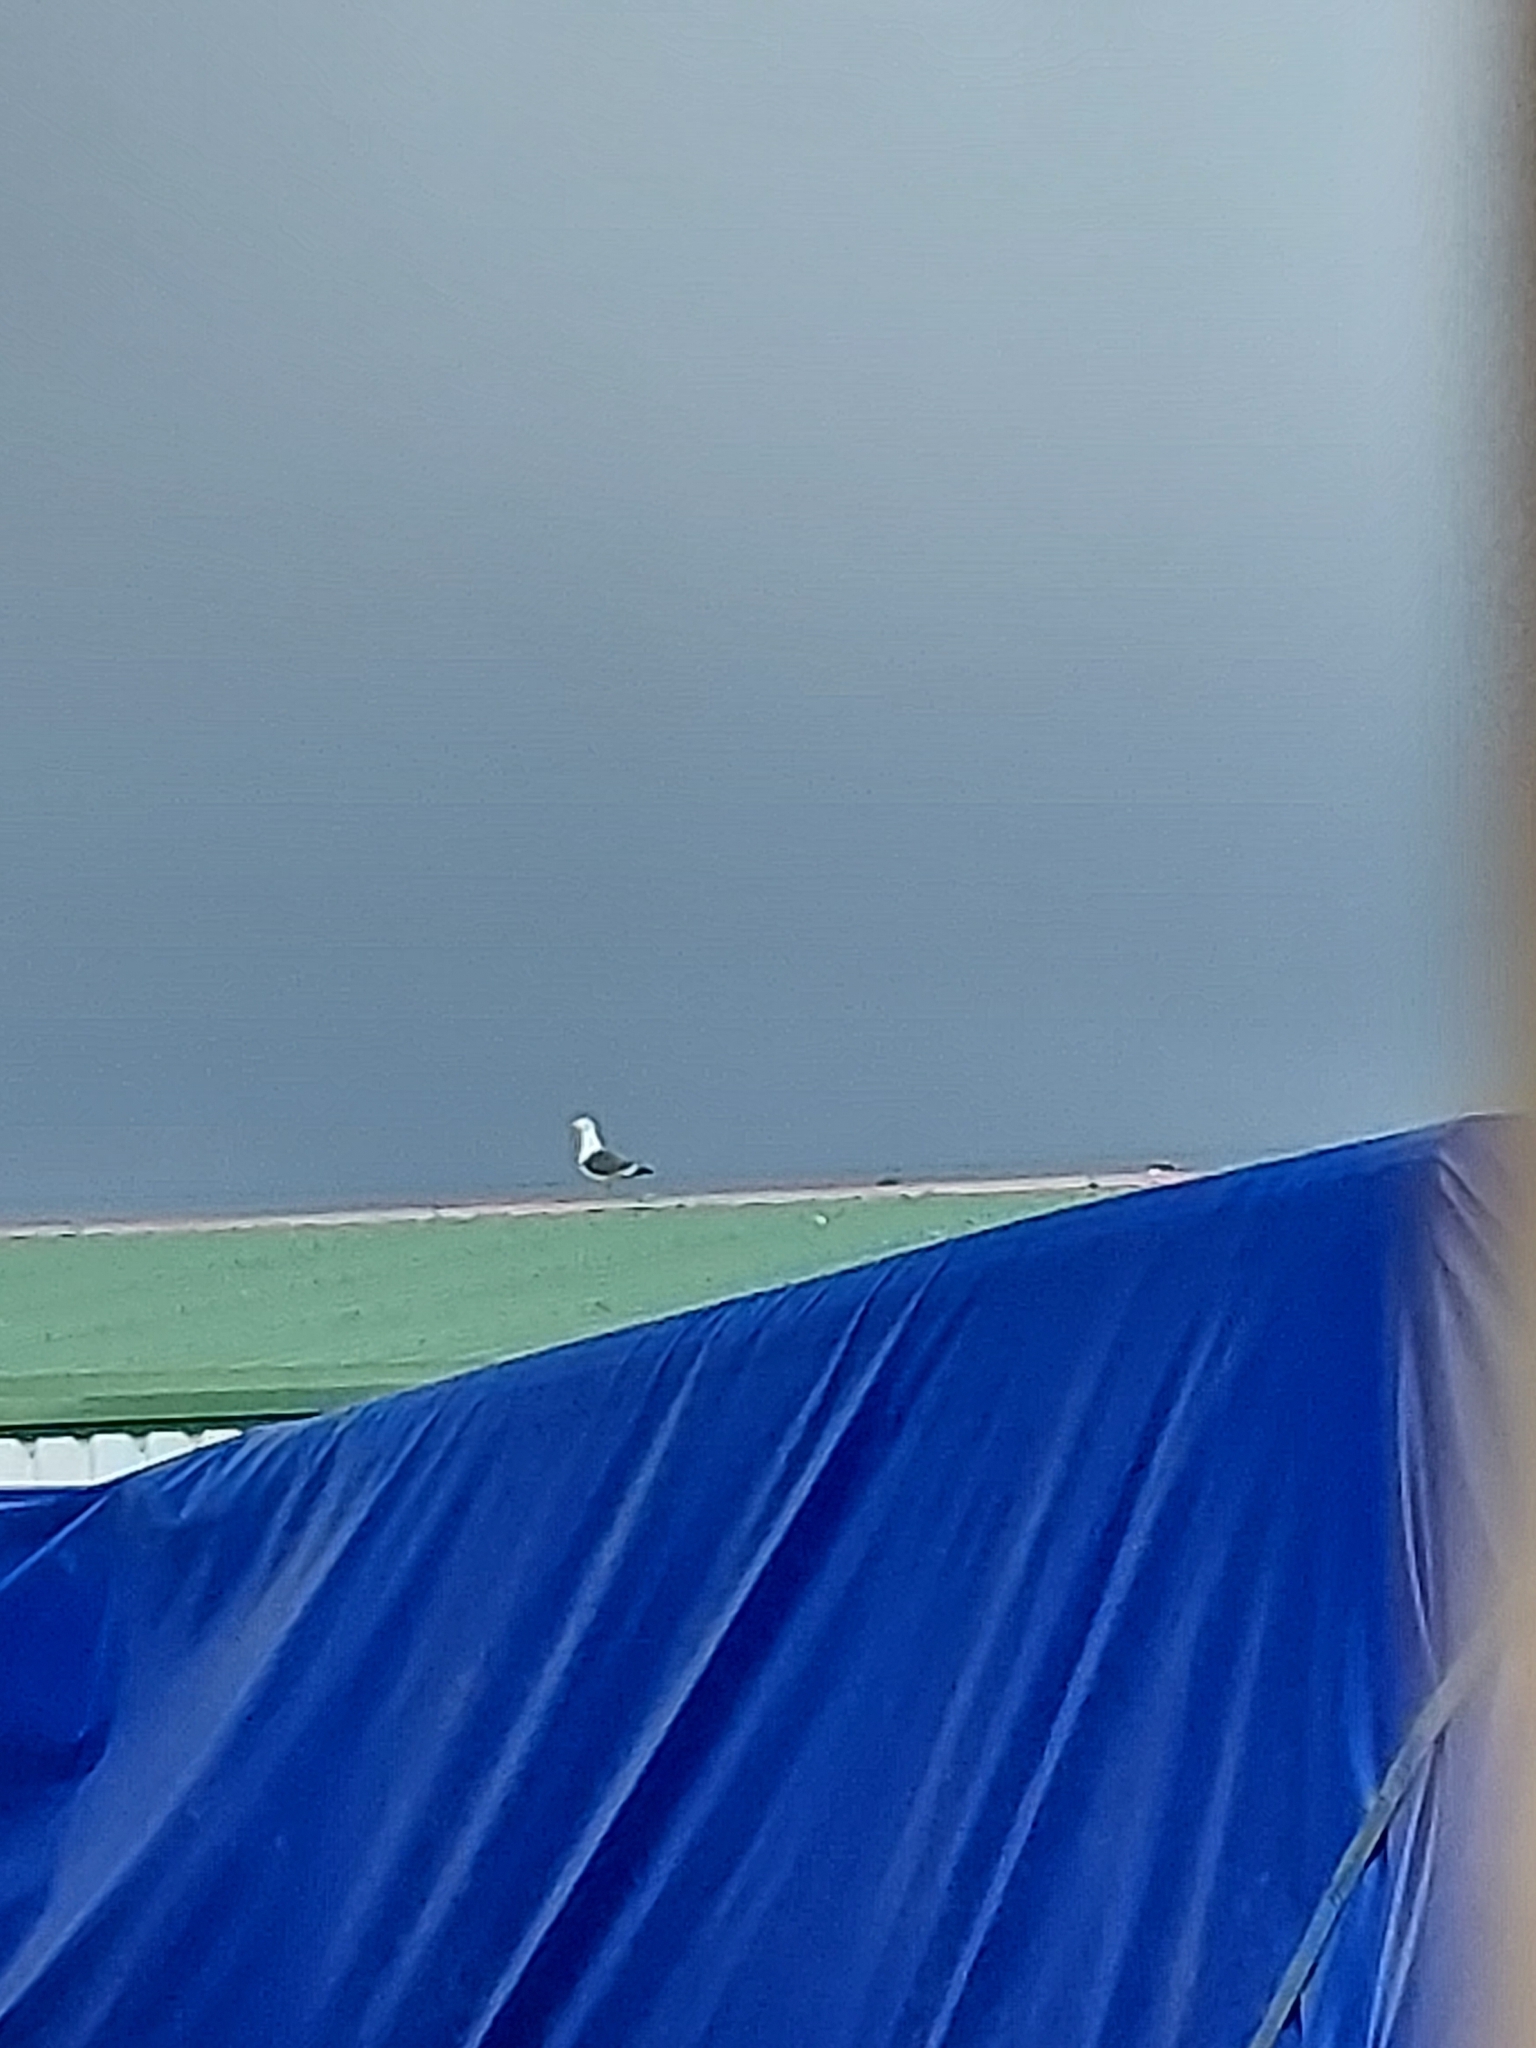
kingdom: Animalia
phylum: Chordata
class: Aves
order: Charadriiformes
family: Laridae
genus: Larus
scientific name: Larus fuscus
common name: Lesser black-backed gull
